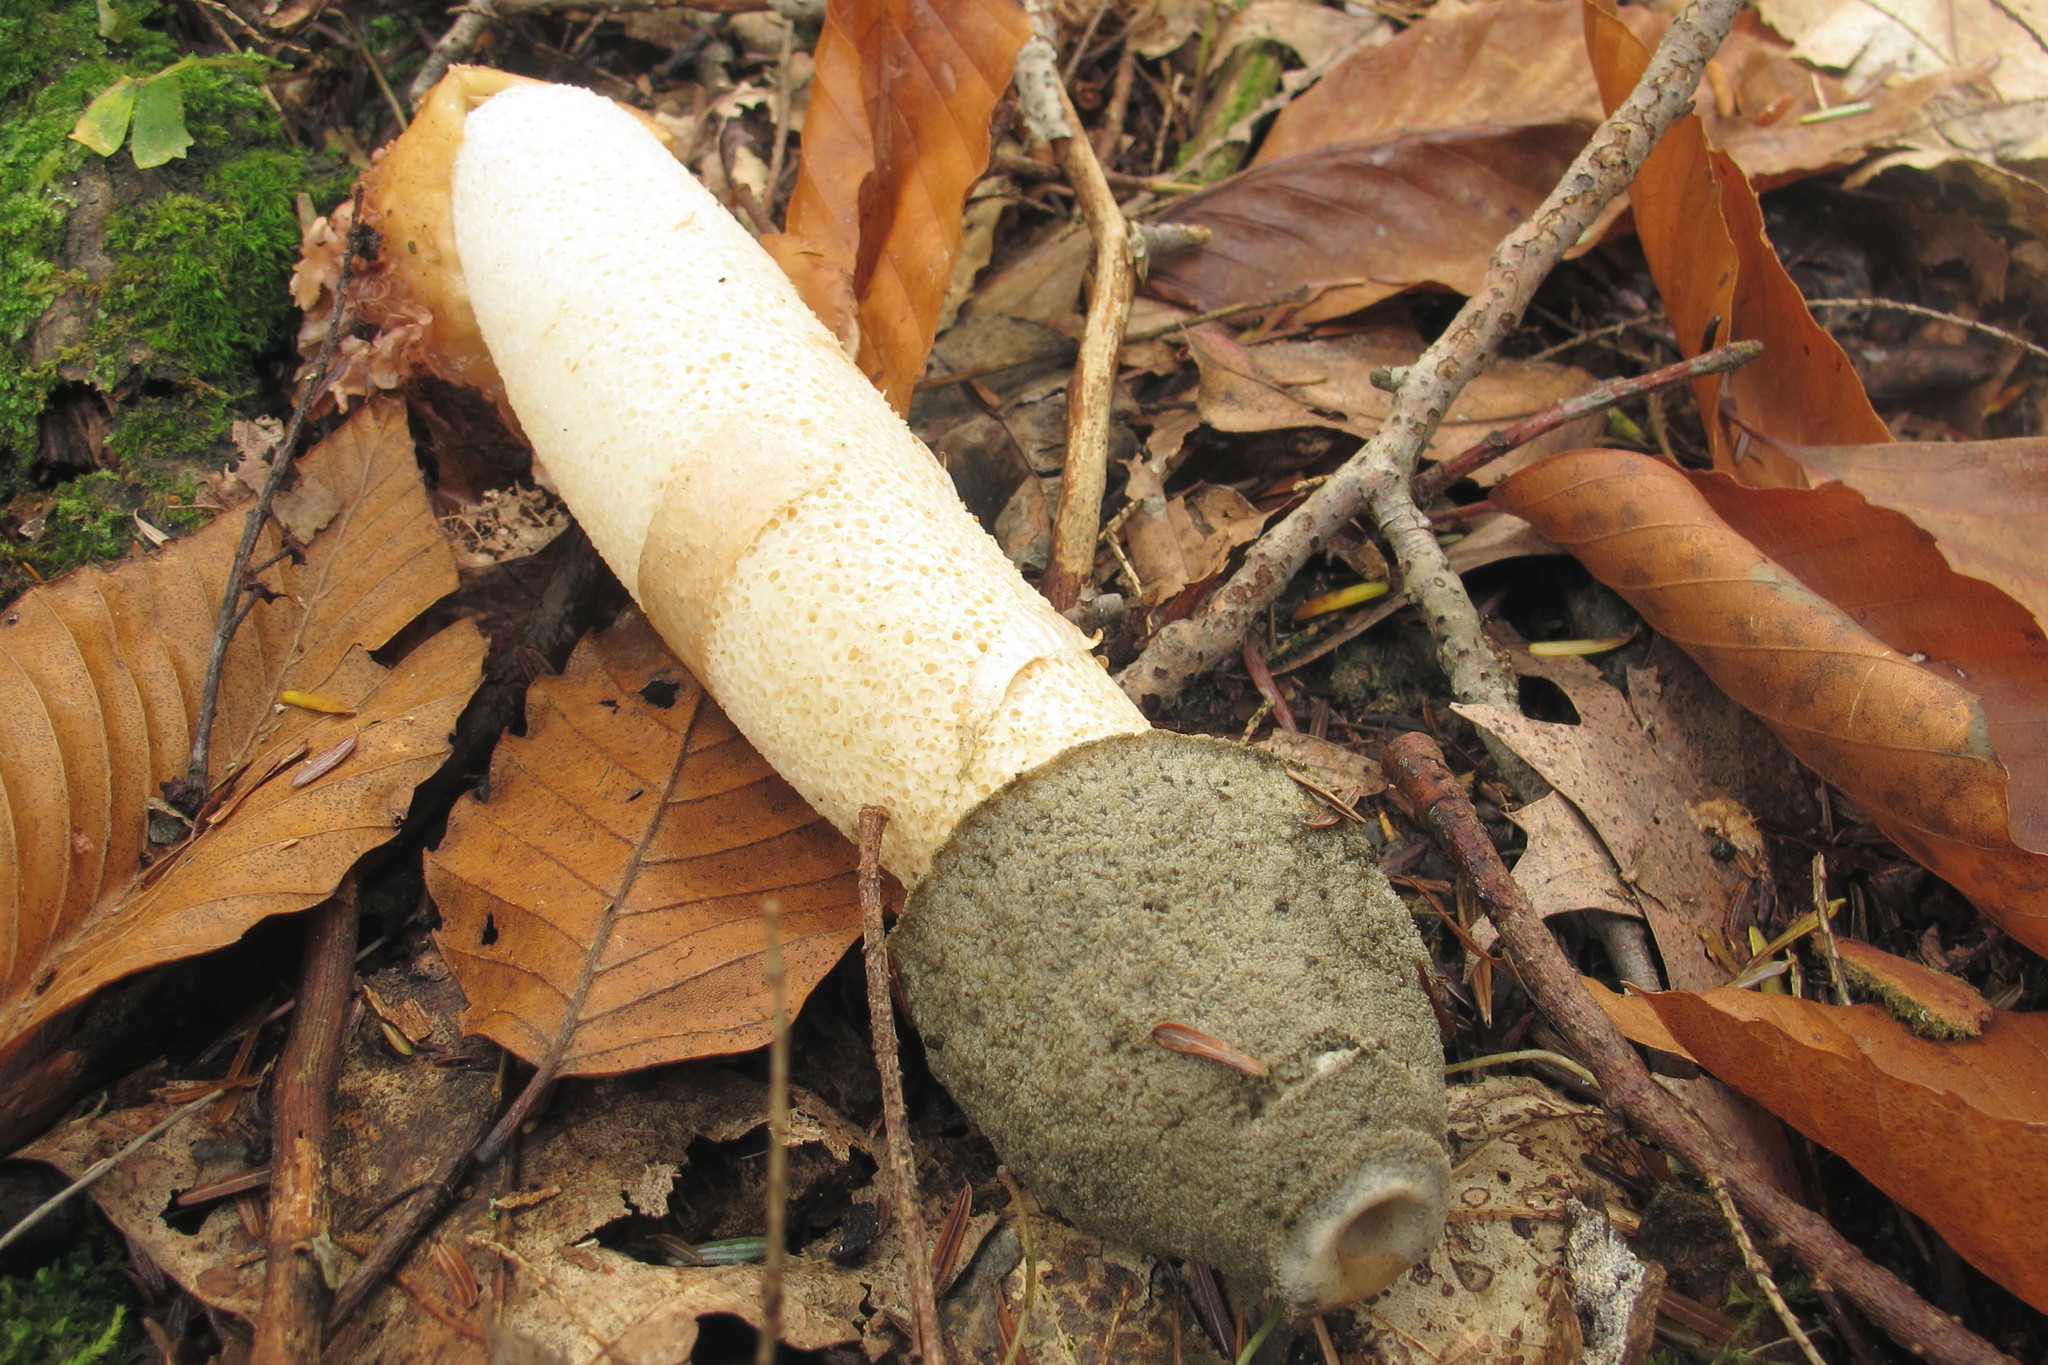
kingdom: Fungi
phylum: Basidiomycota
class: Agaricomycetes
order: Phallales
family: Phallaceae
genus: Phallus
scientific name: Phallus ravenelii
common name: Ravenel's stinkhorn
